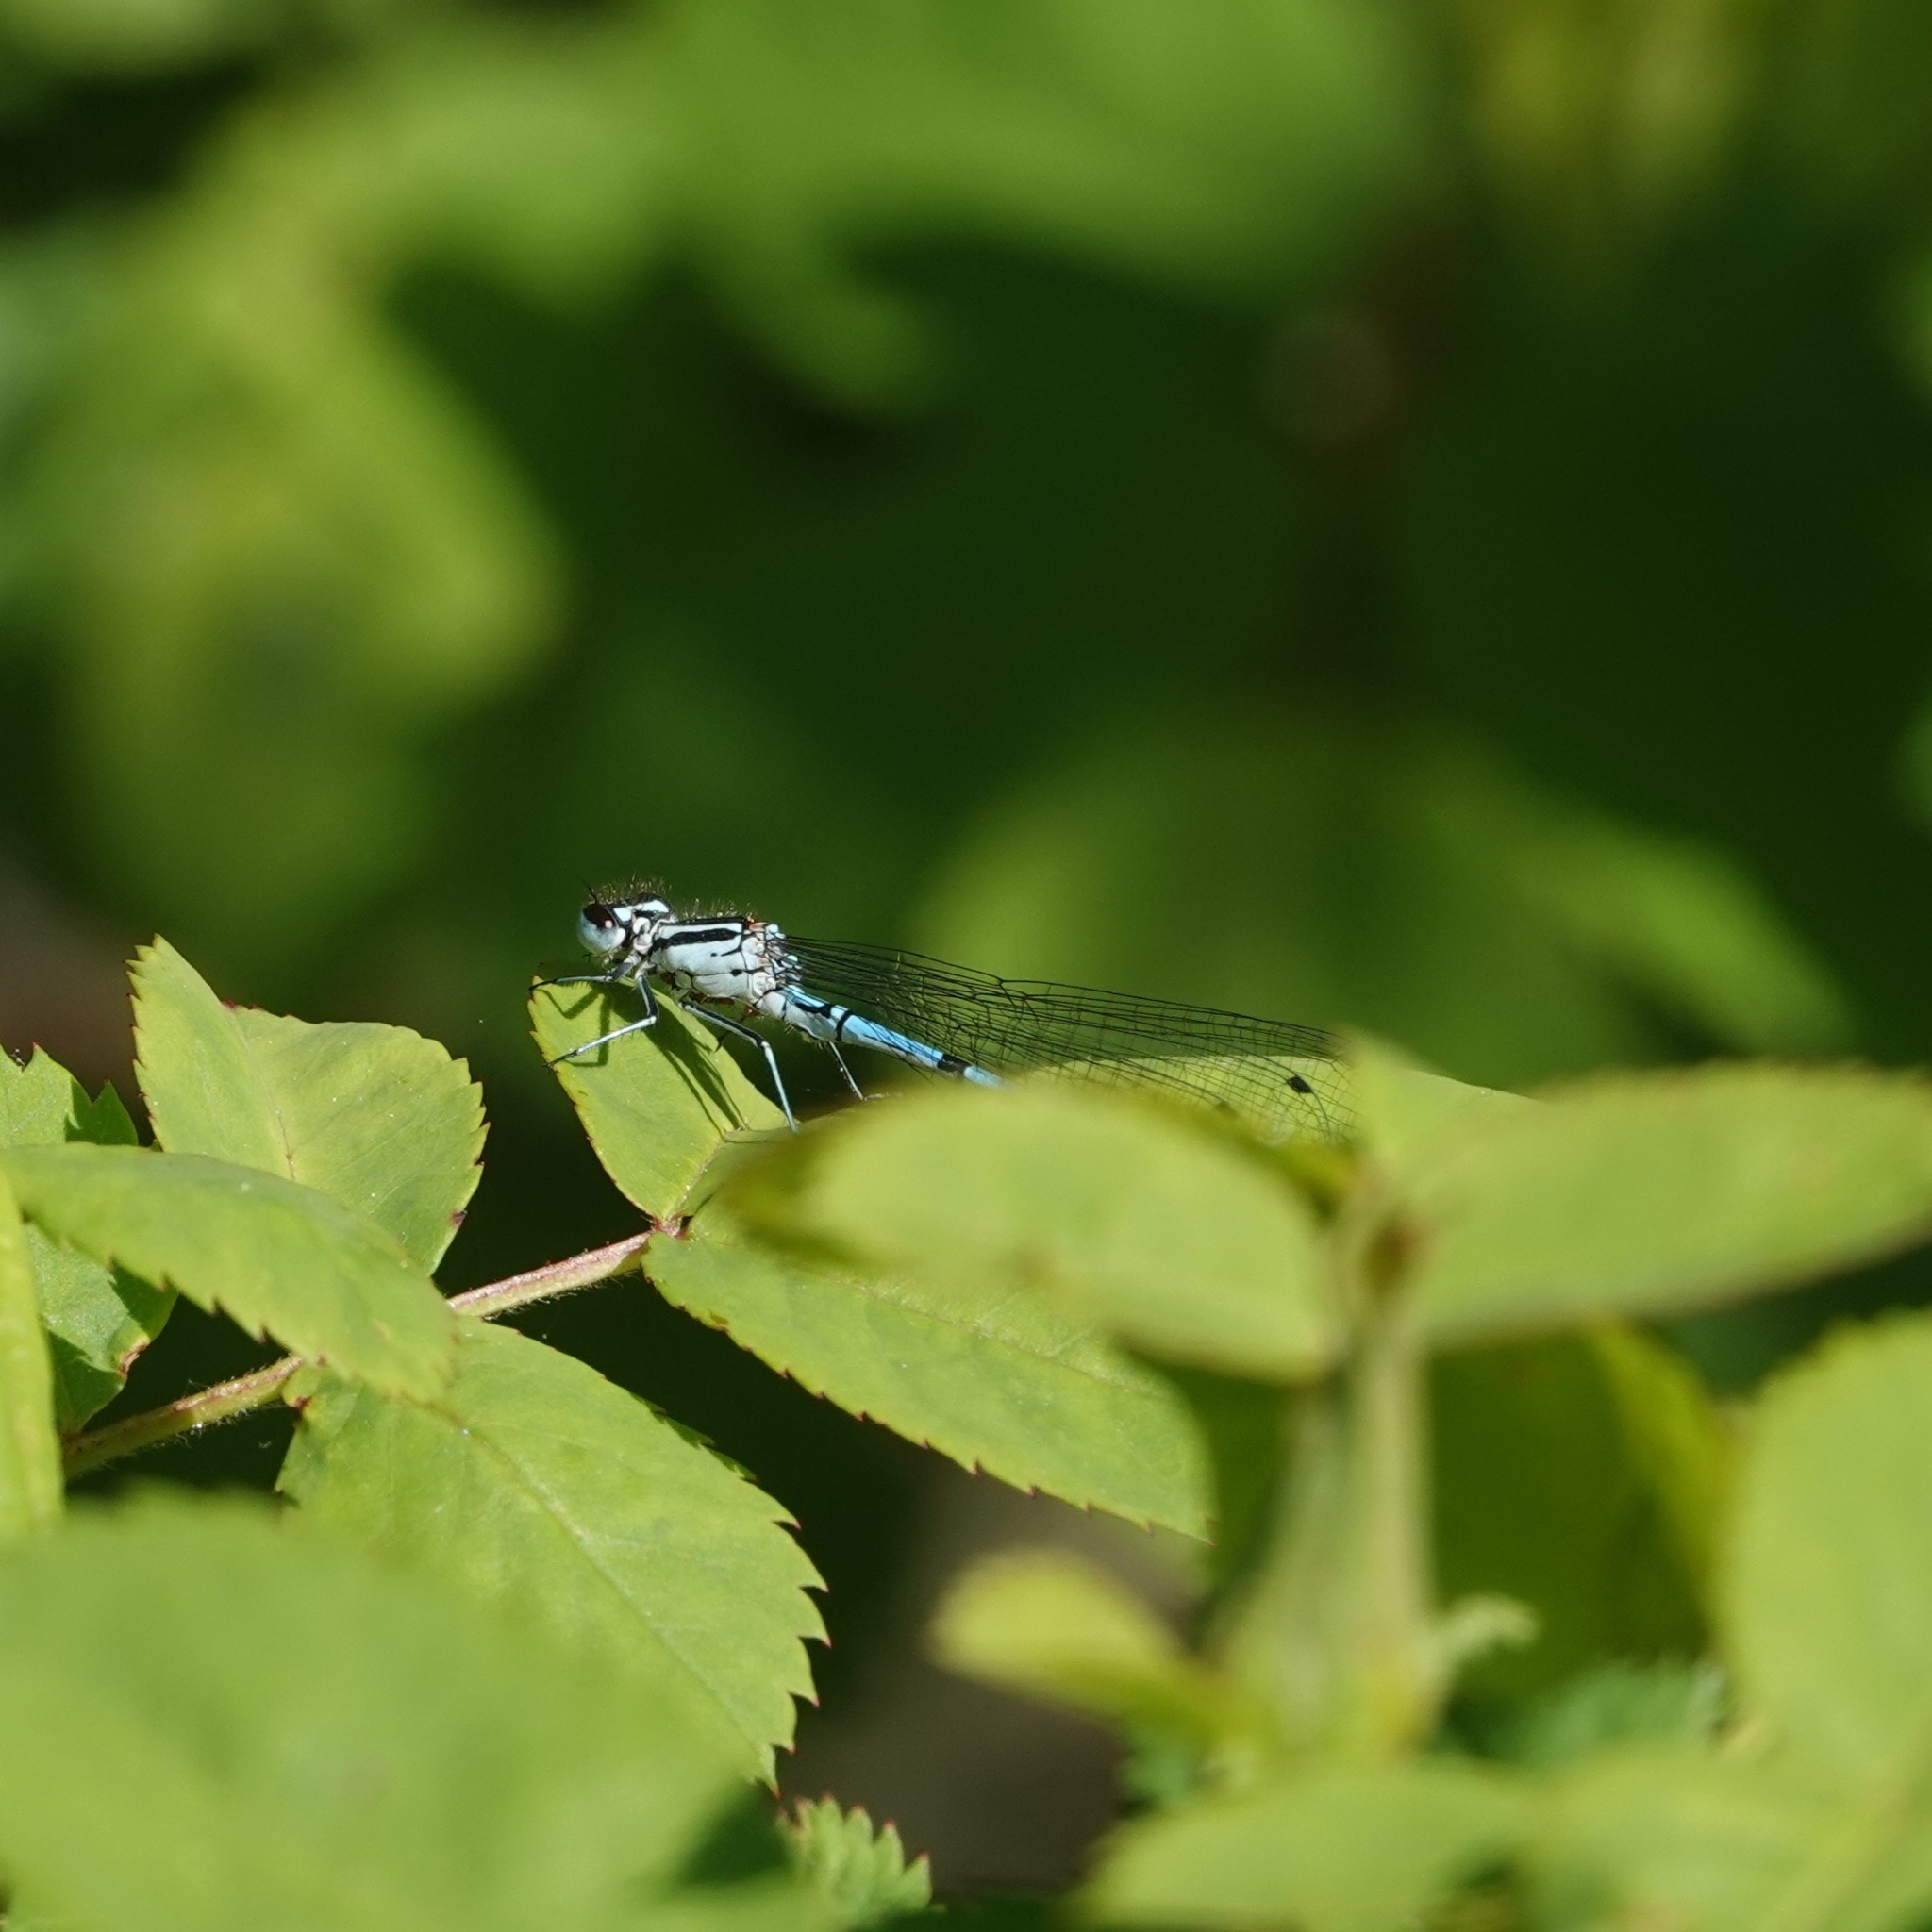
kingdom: Animalia
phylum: Arthropoda
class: Insecta
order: Odonata
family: Coenagrionidae
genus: Coenagrion
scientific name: Coenagrion puella
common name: Azure damselfly
